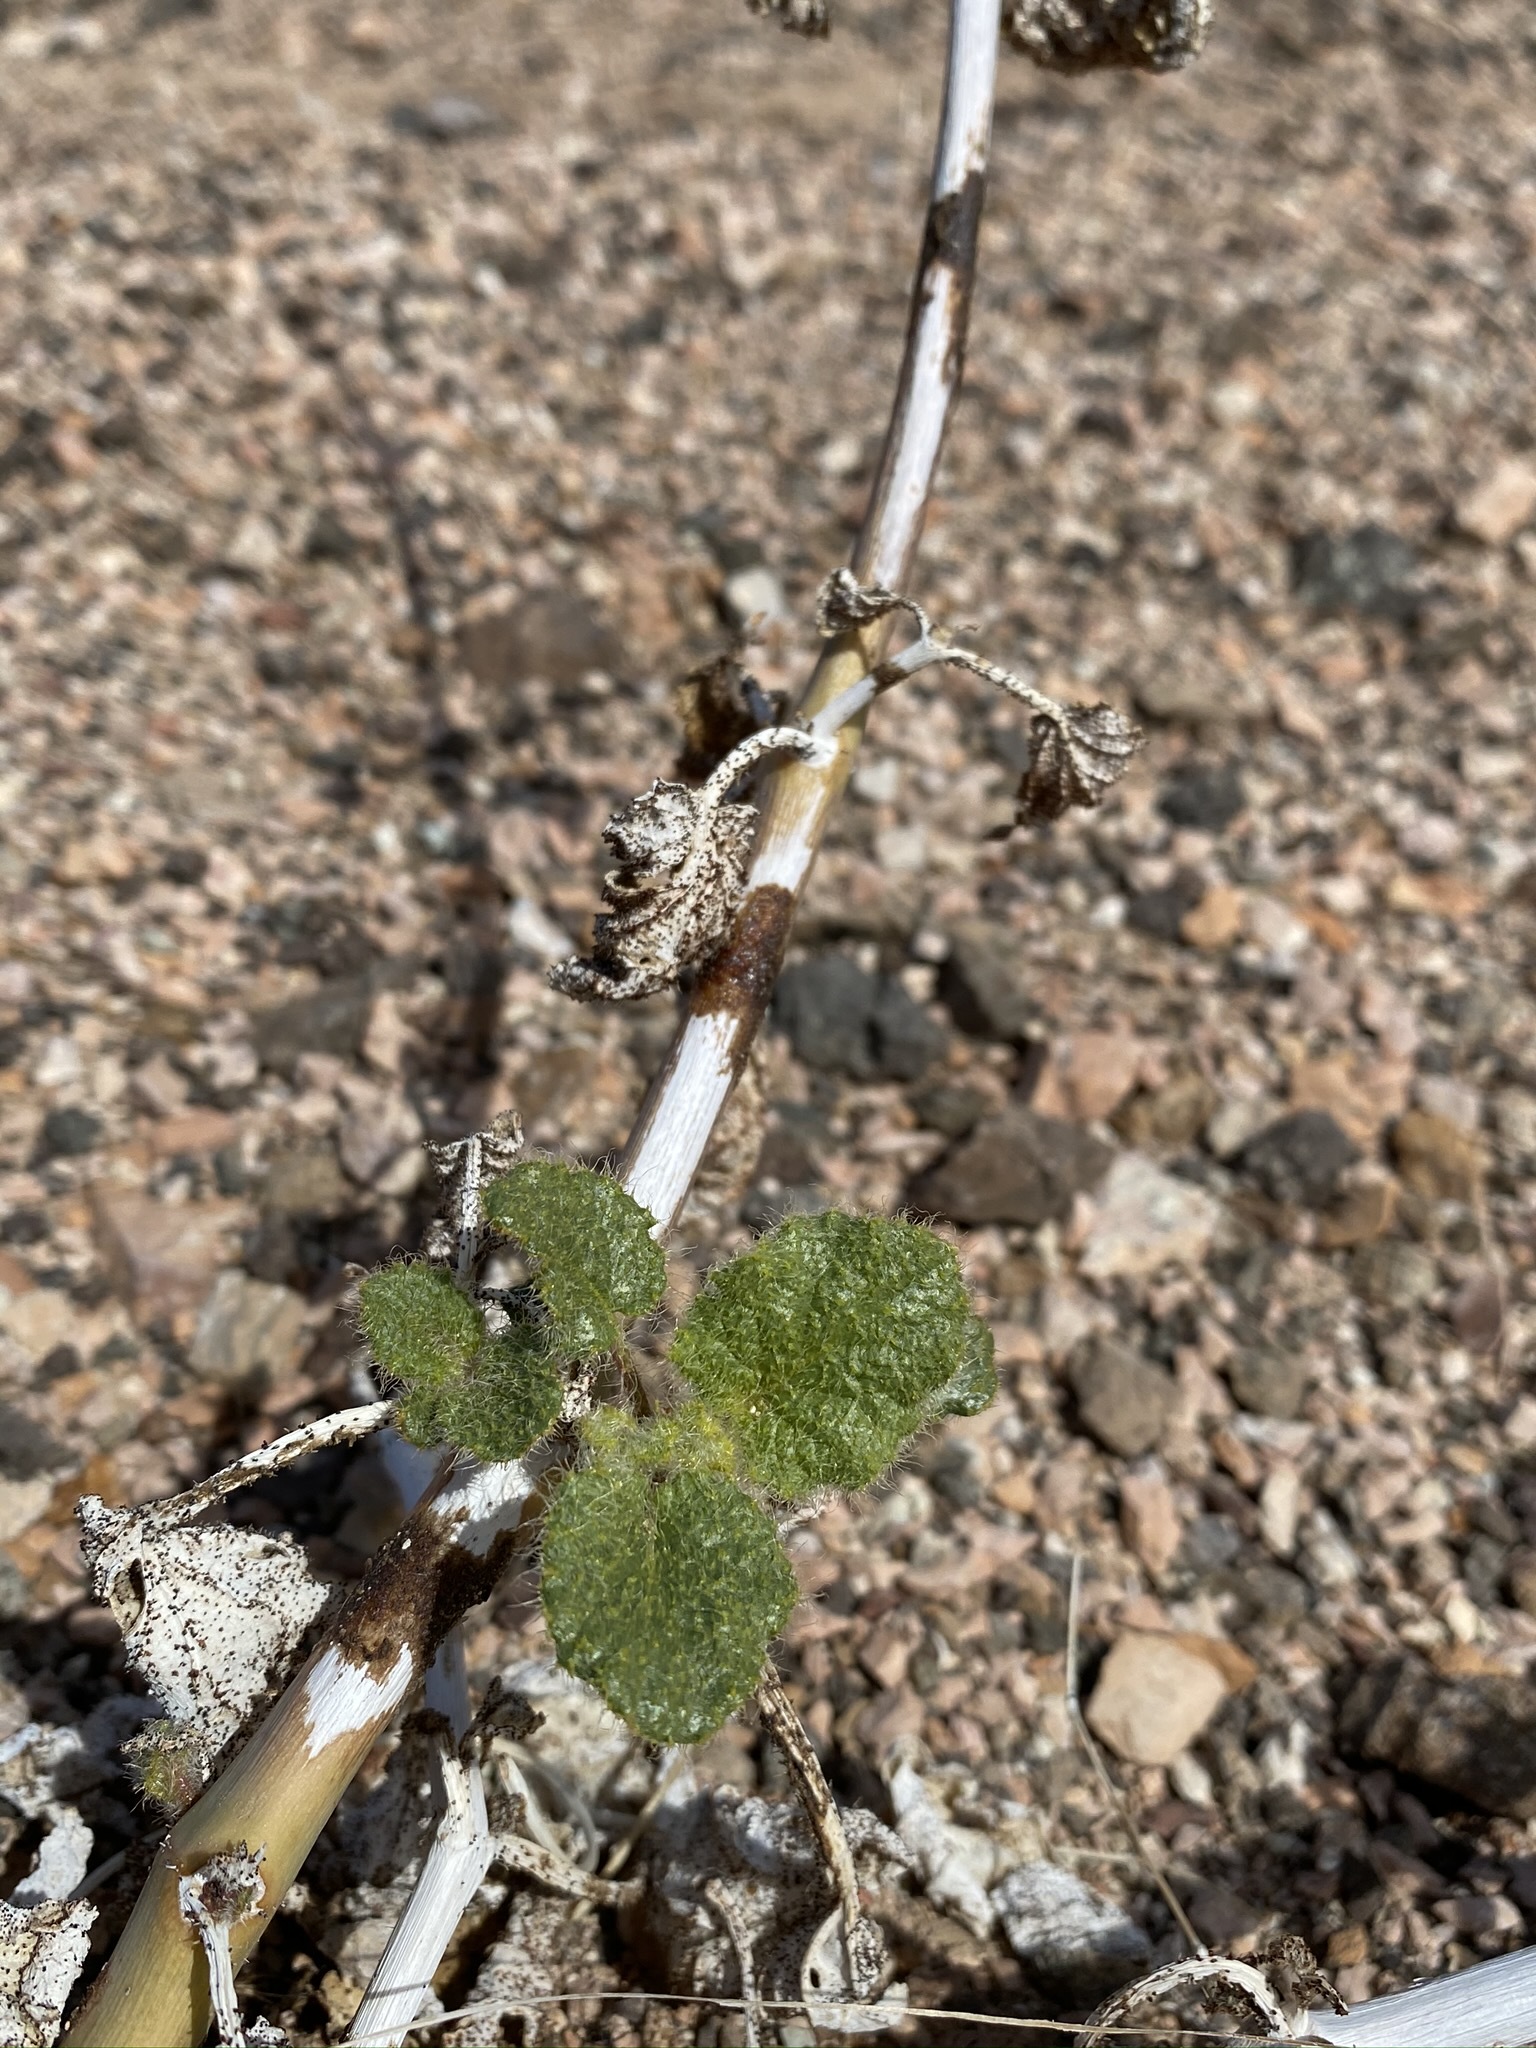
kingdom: Plantae
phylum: Tracheophyta
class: Magnoliopsida
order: Caryophyllales
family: Nyctaginaceae
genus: Anulocaulis
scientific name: Anulocaulis annulatus
